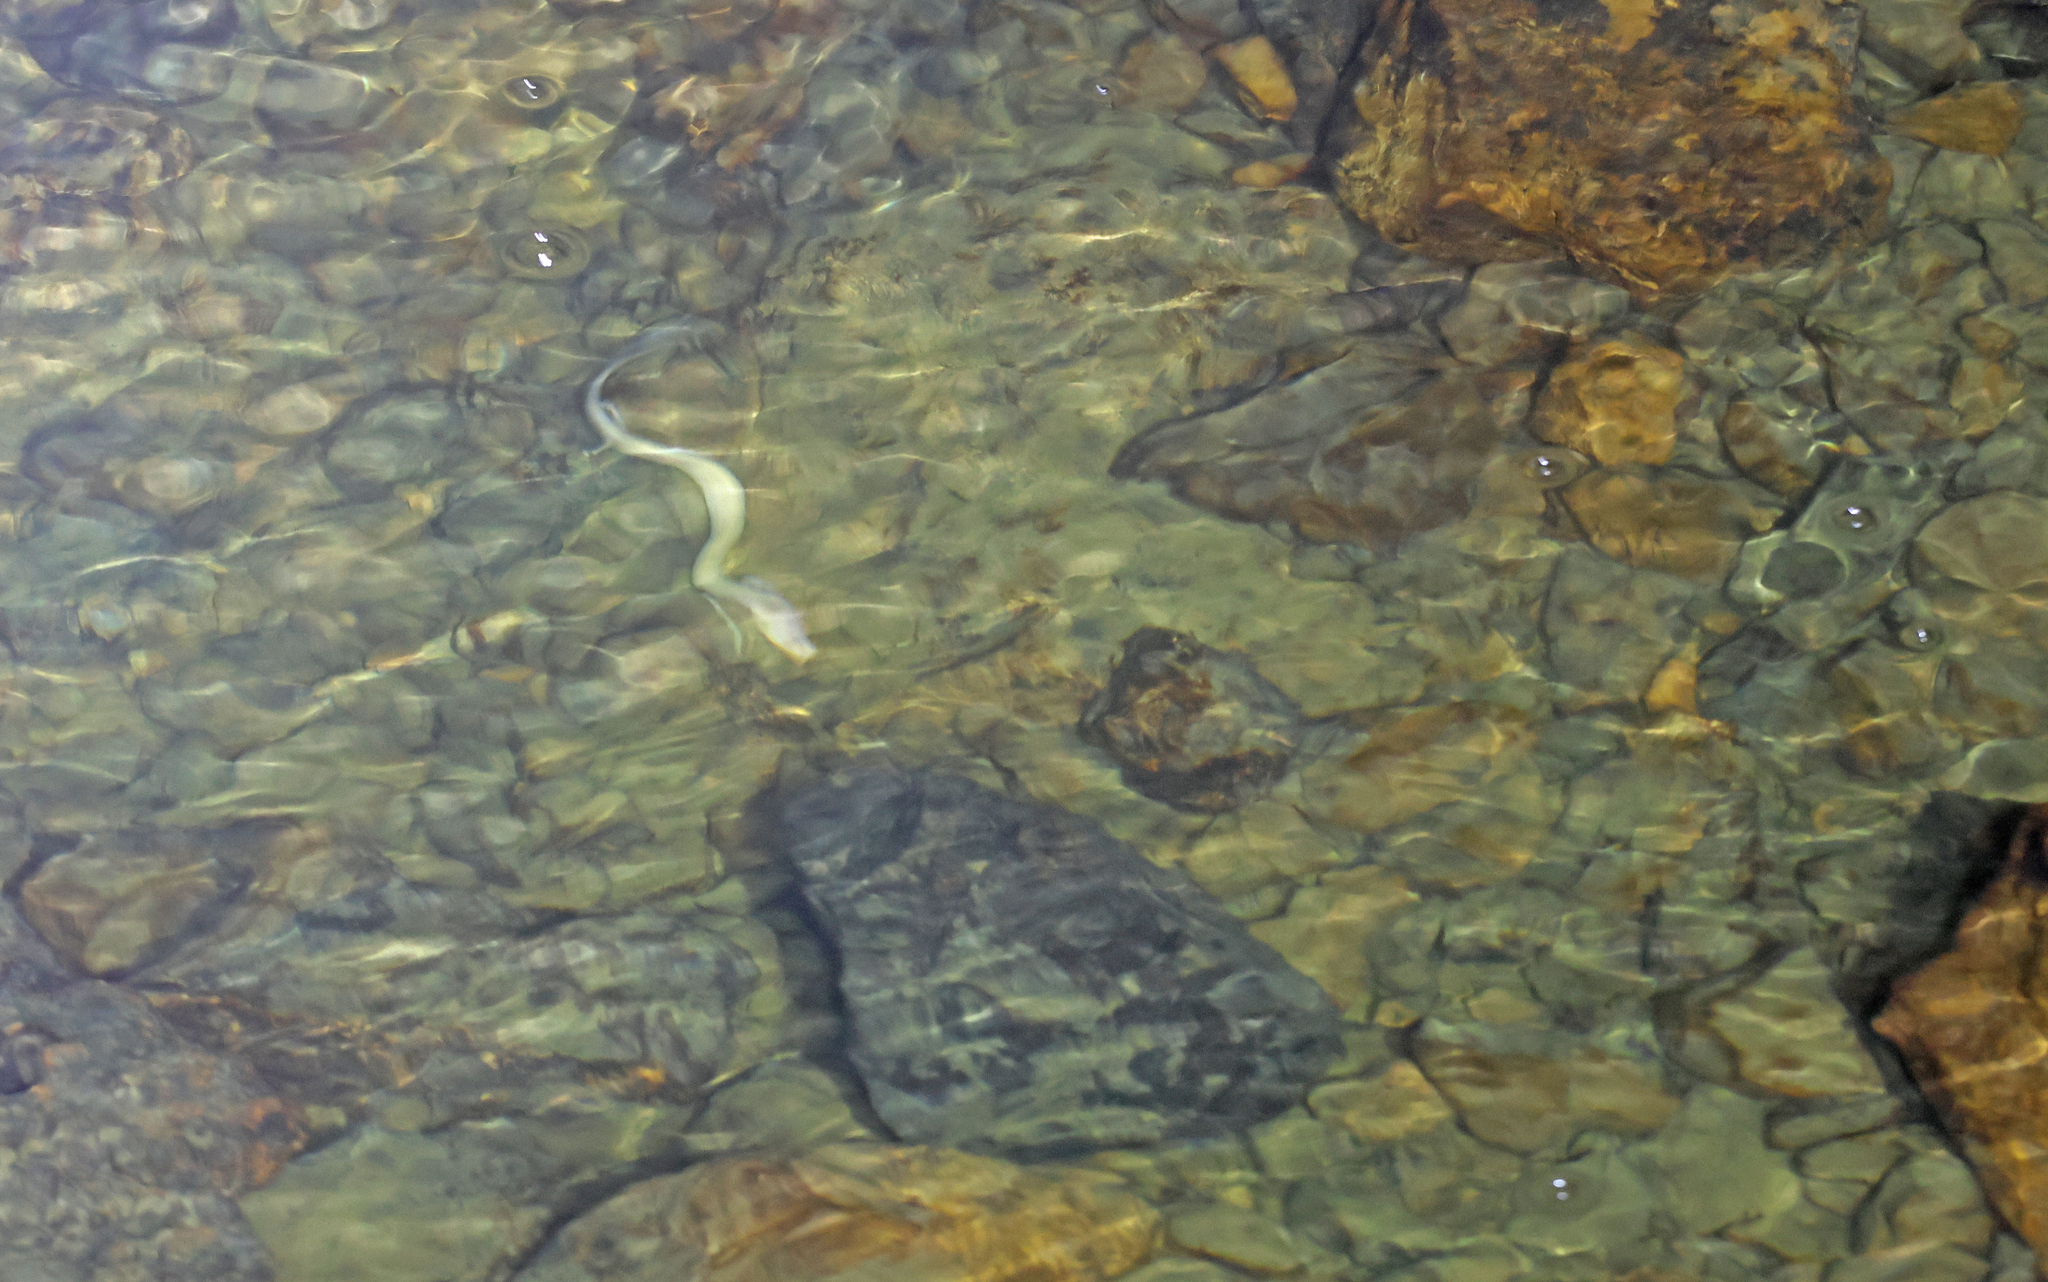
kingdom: Animalia
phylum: Chordata
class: Amphibia
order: Caudata
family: Proteidae
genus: Proteus
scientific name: Proteus anguinus
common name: Olm
